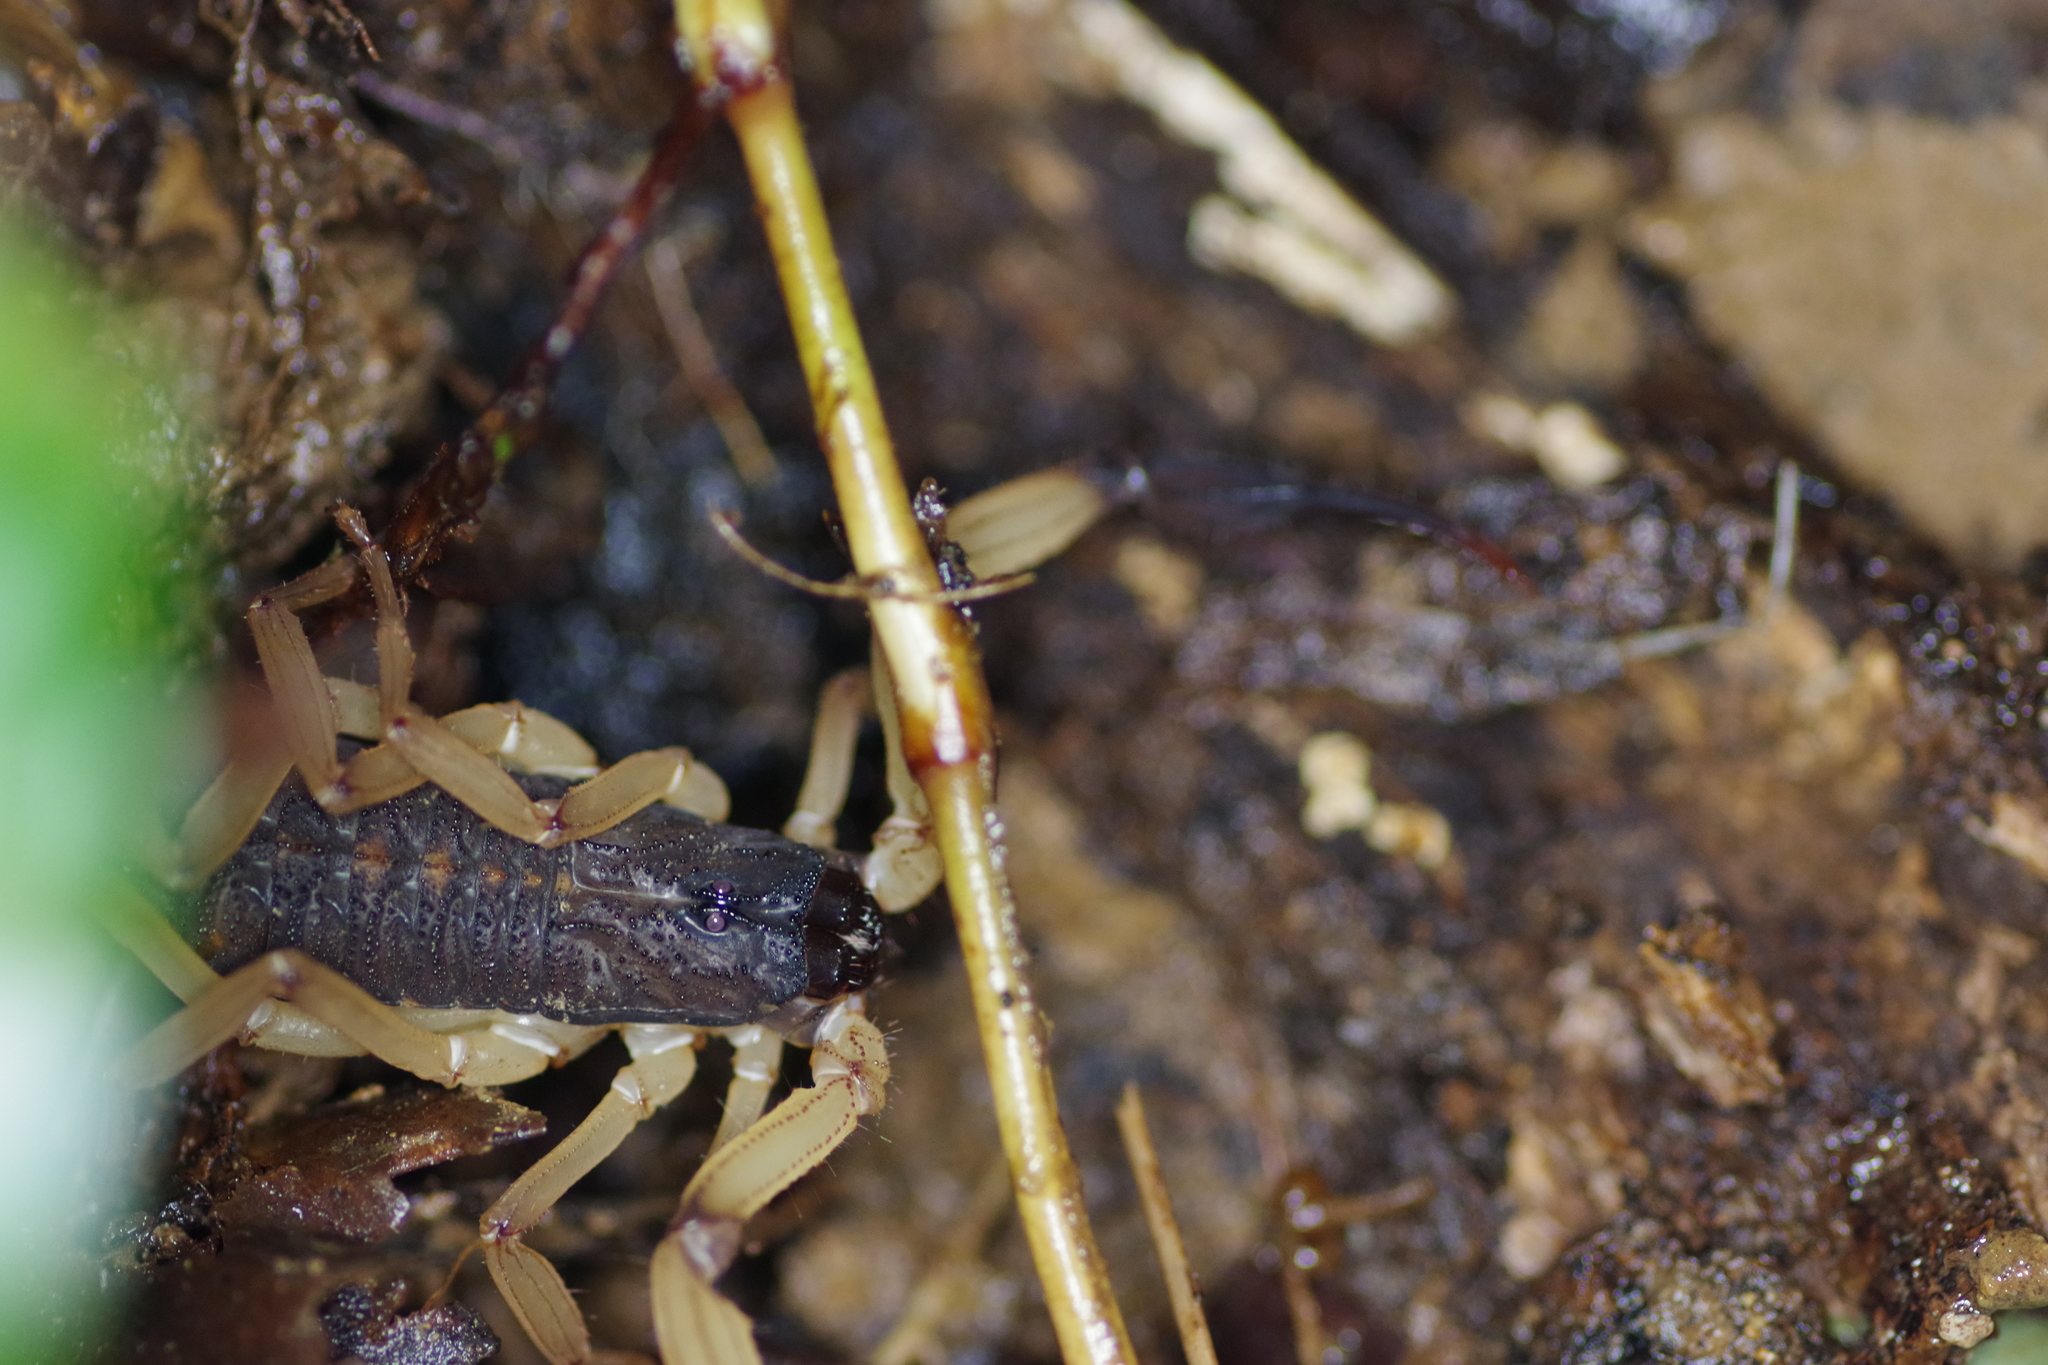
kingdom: Animalia
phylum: Arthropoda
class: Arachnida
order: Scorpiones
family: Buthidae
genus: Centruroides
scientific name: Centruroides bicolor
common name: Scorpions
